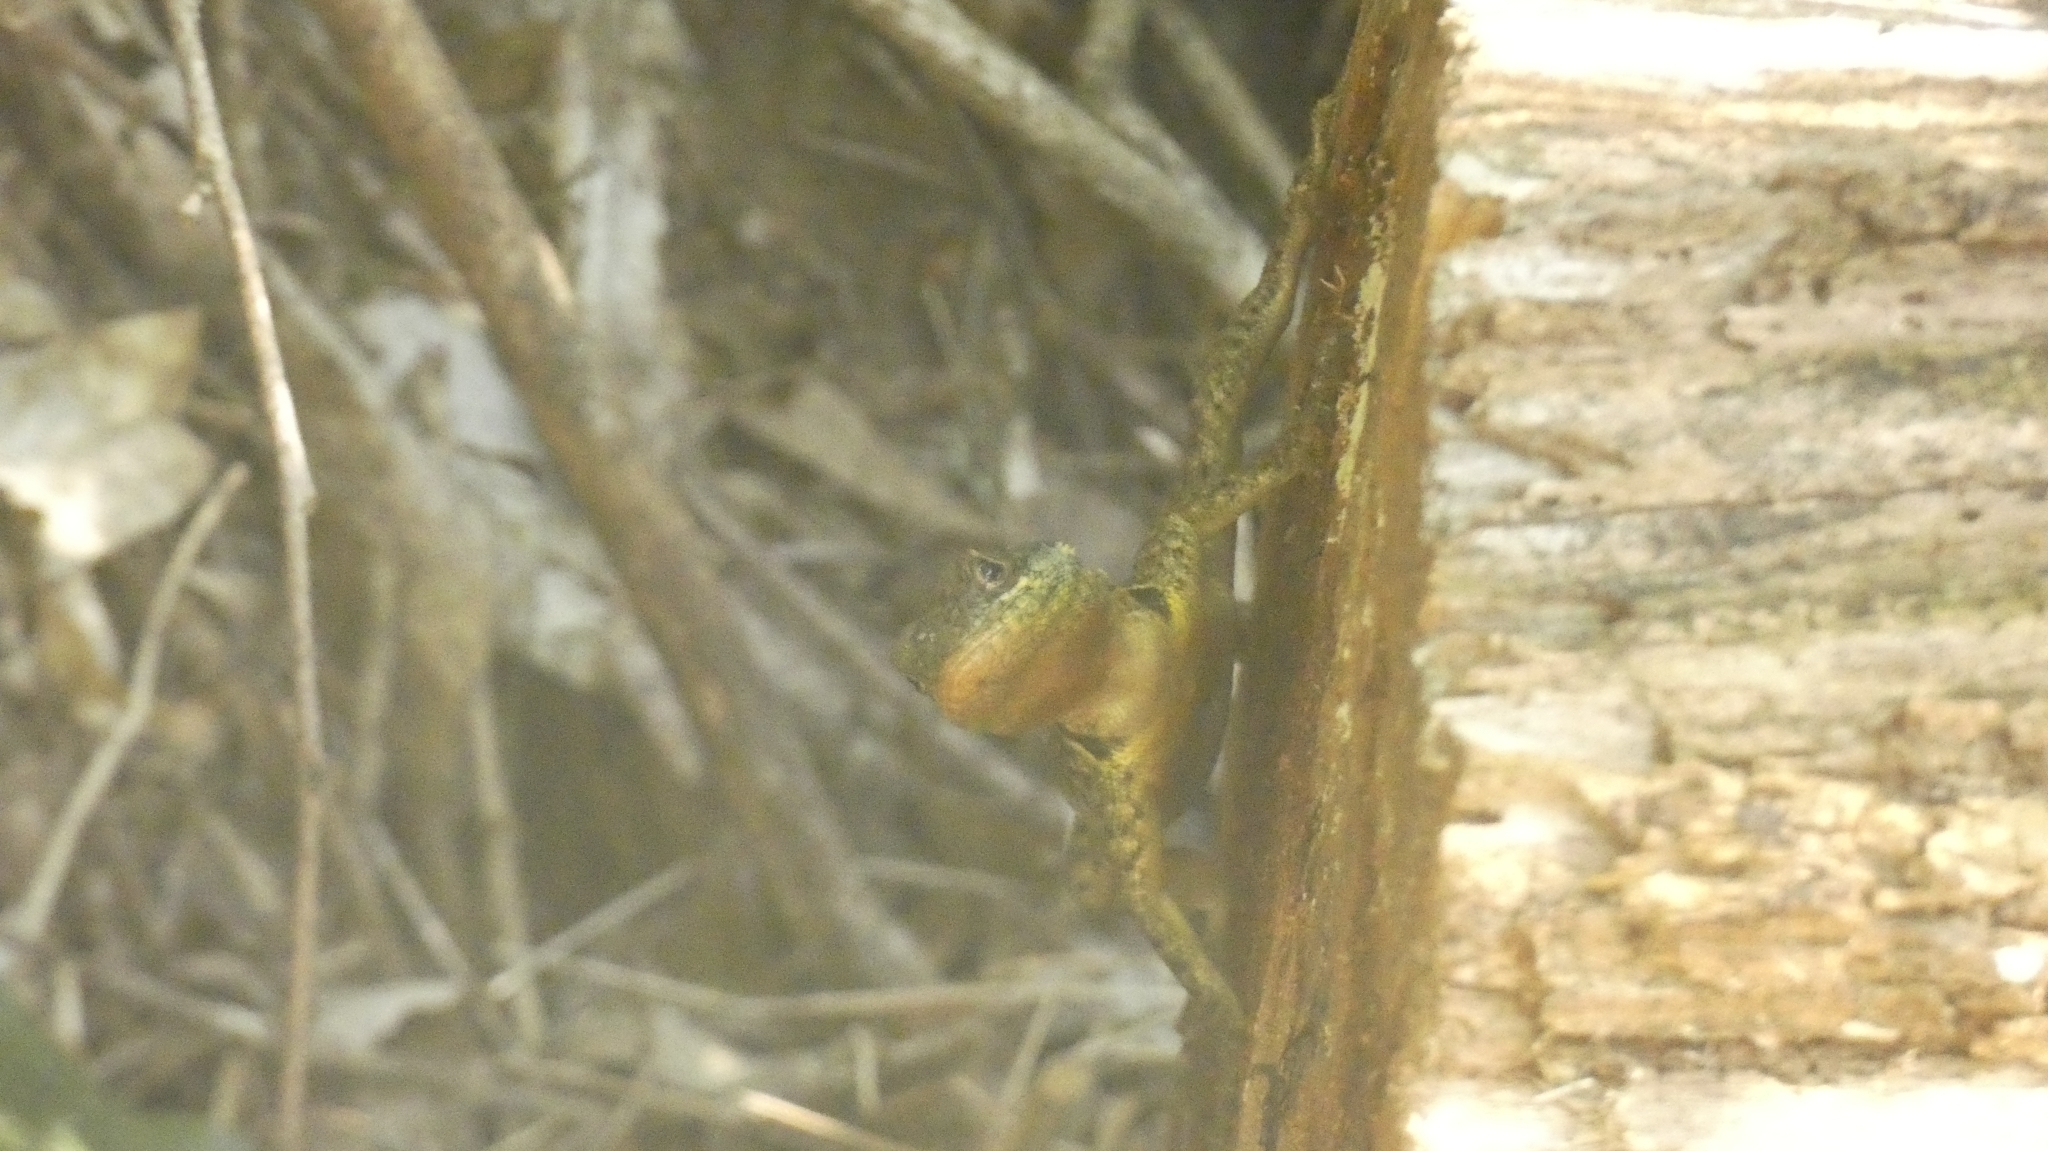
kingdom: Animalia
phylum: Chordata
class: Squamata
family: Tropiduridae
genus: Tropidurus
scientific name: Tropidurus catalanensis
